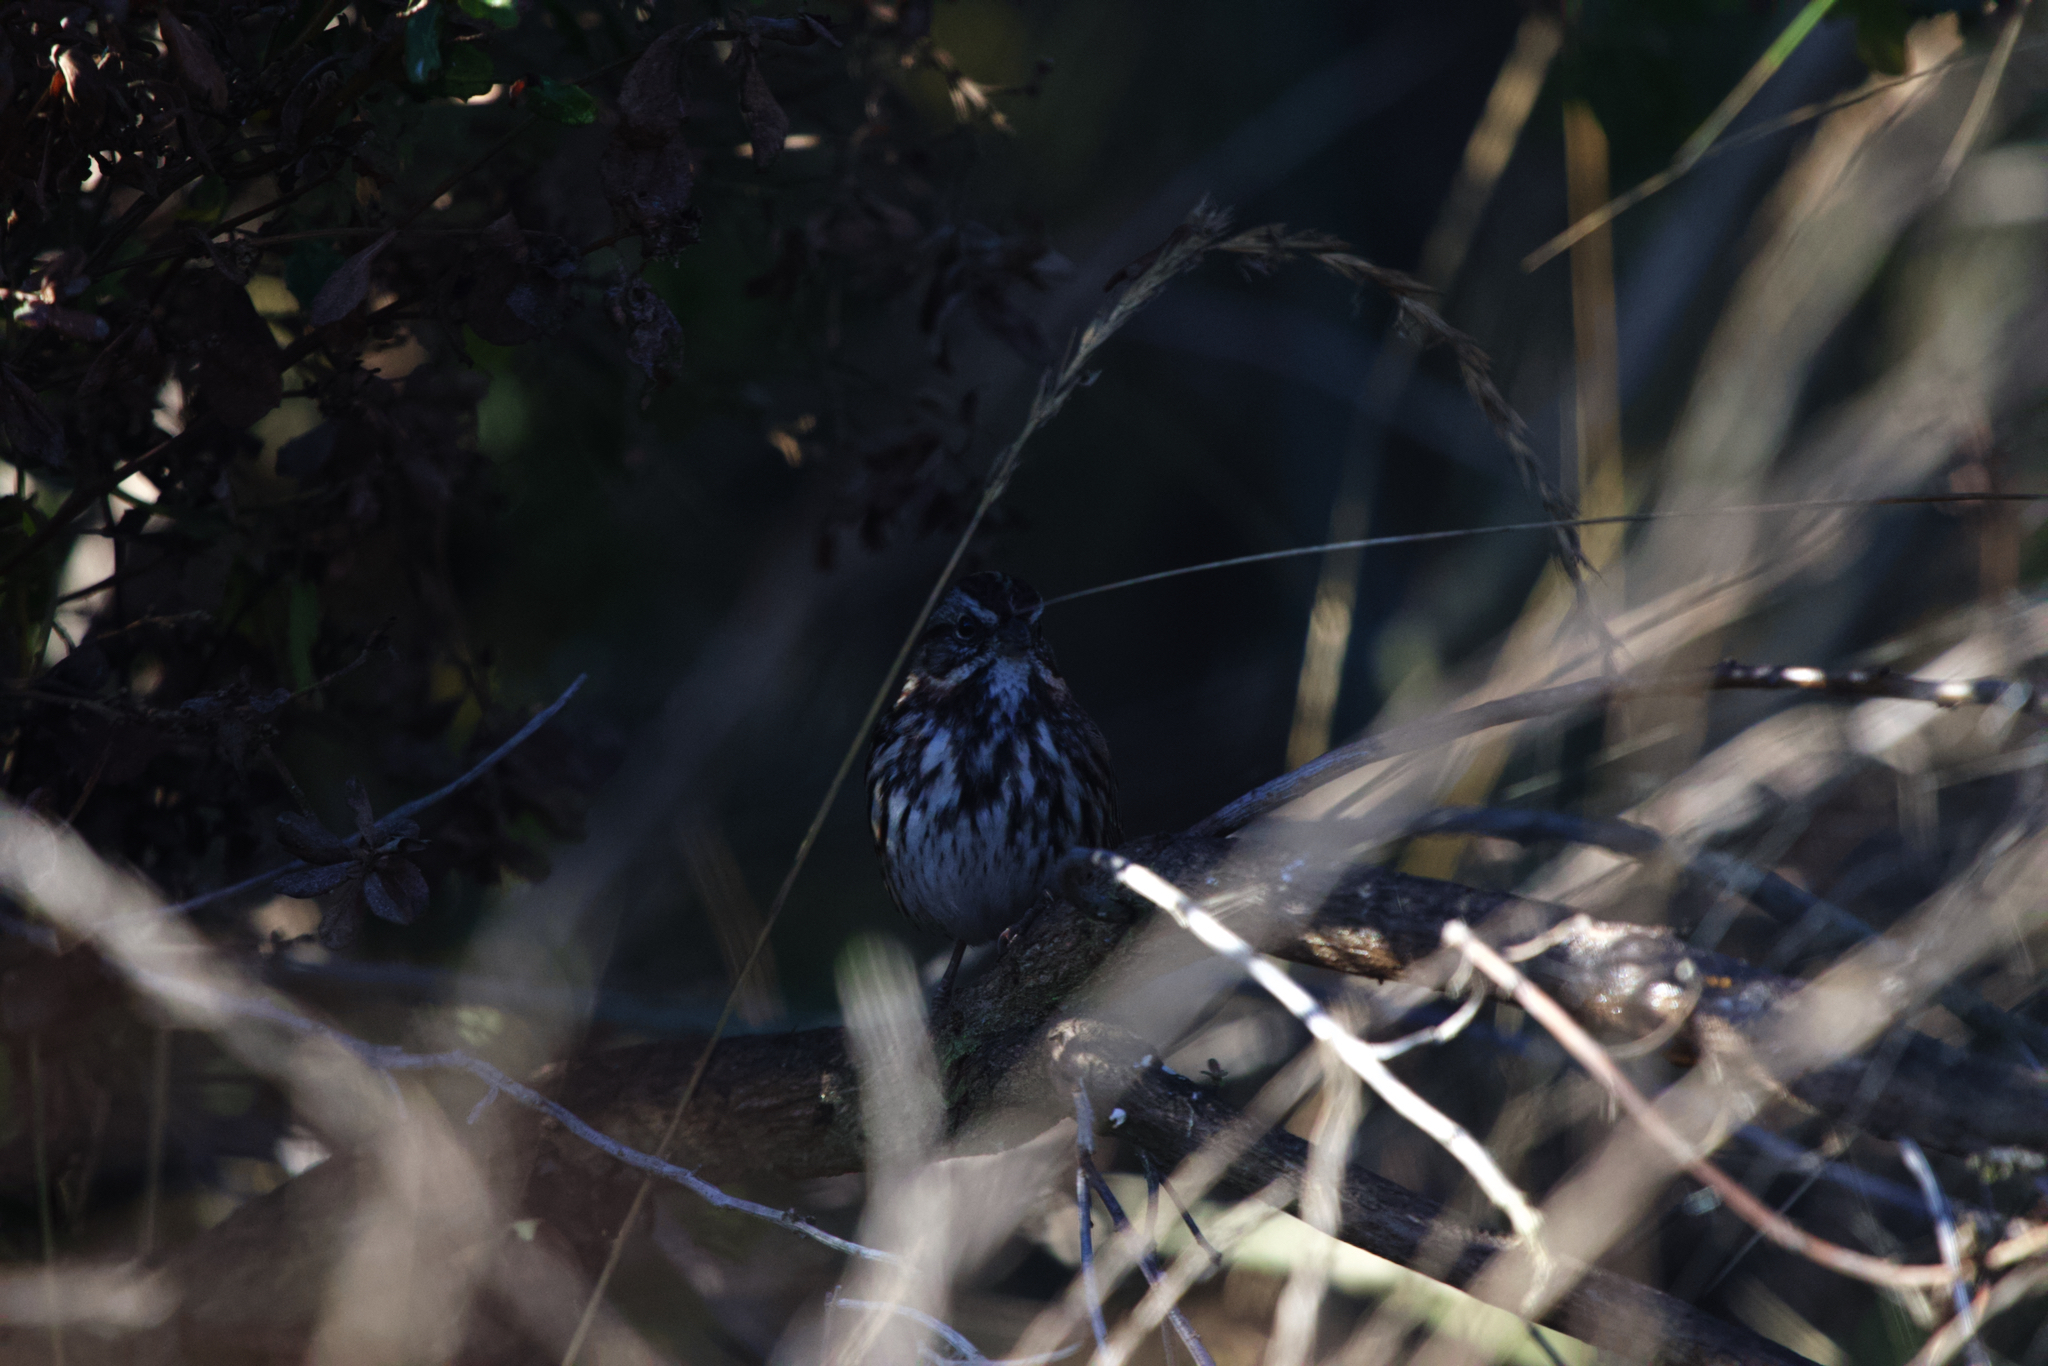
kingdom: Animalia
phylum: Chordata
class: Aves
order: Passeriformes
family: Passerellidae
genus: Melospiza
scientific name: Melospiza melodia
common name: Song sparrow
